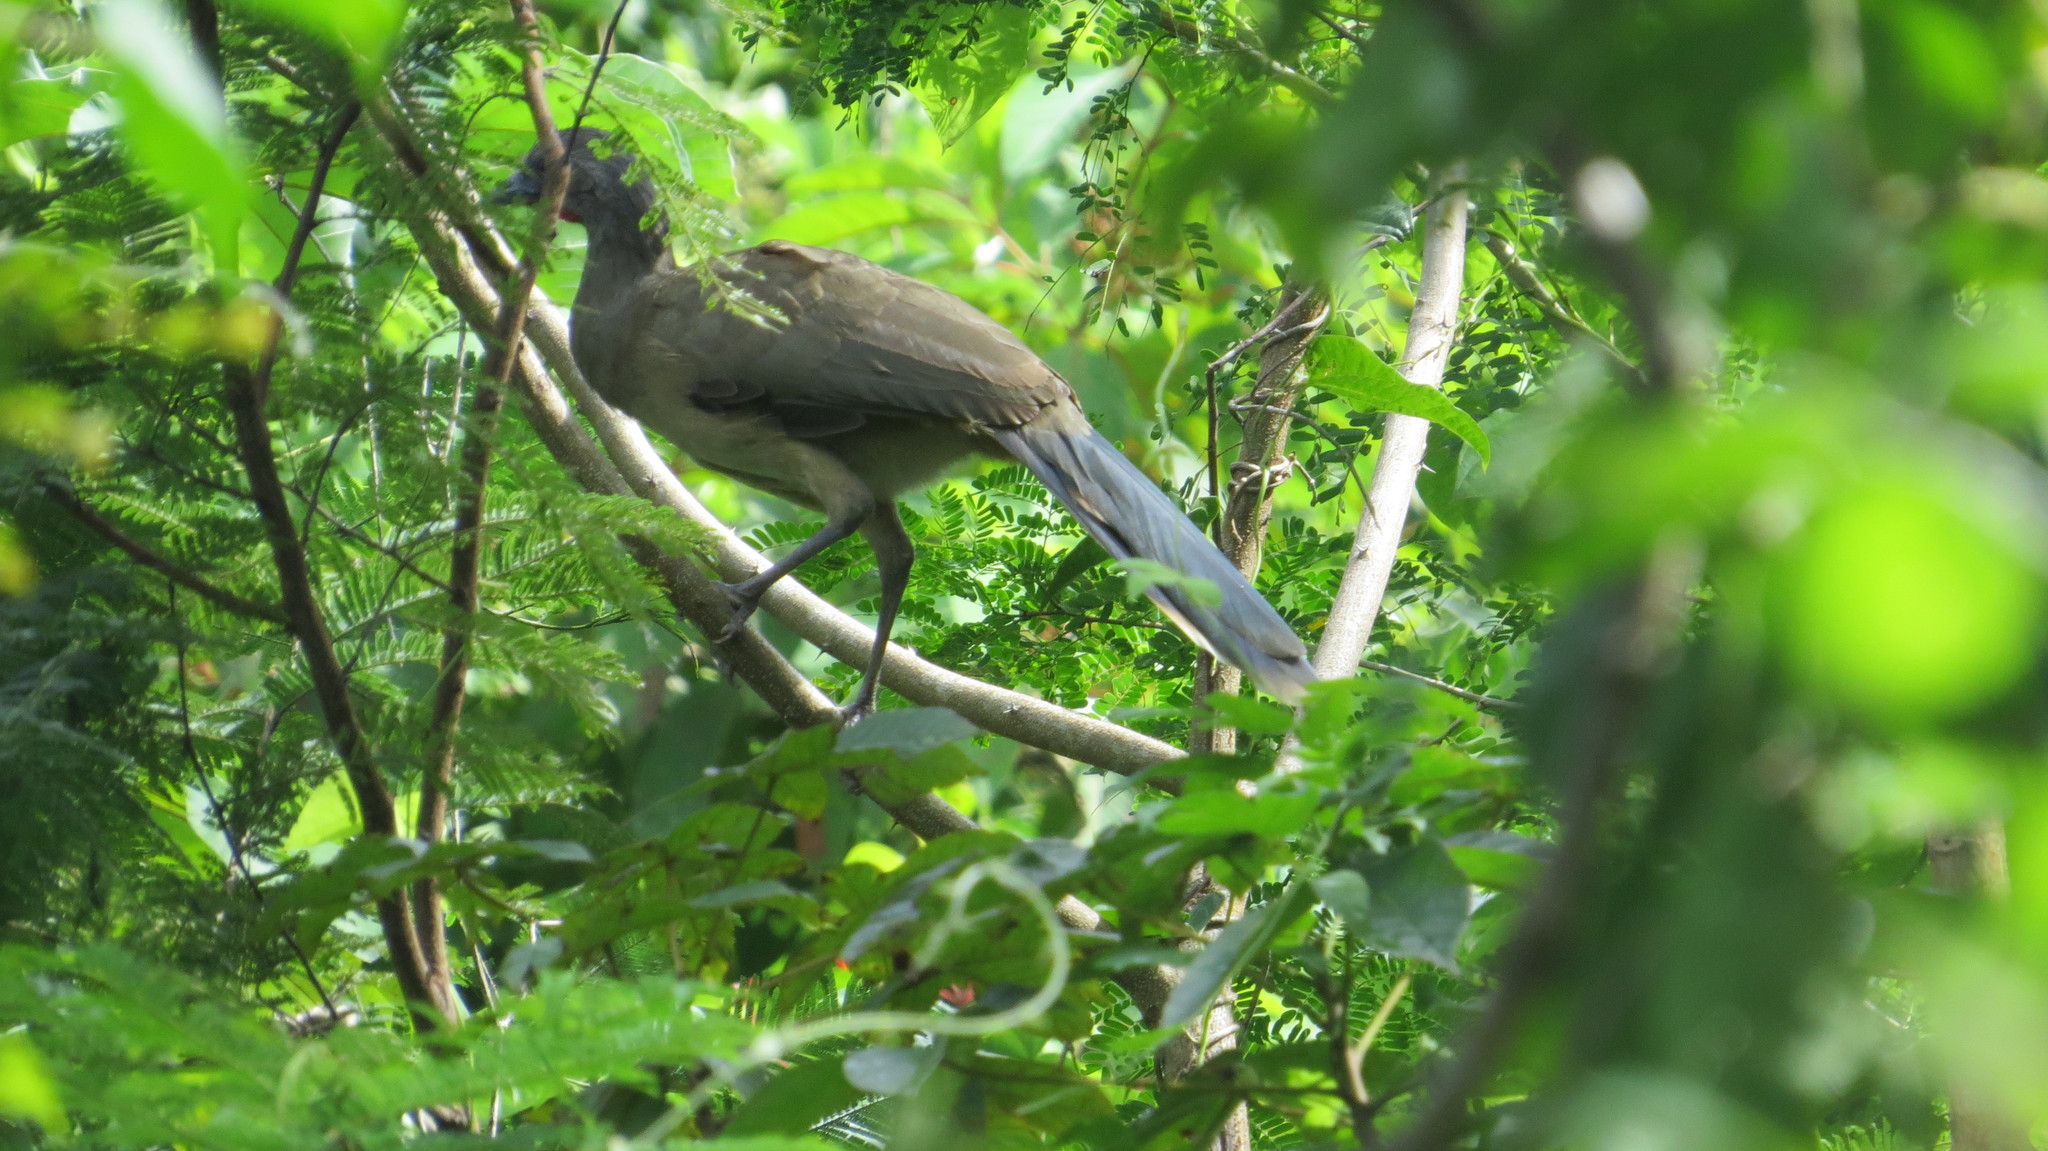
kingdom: Animalia
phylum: Chordata
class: Aves
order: Galliformes
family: Cracidae
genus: Ortalis
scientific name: Ortalis vetula
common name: Plain chachalaca
